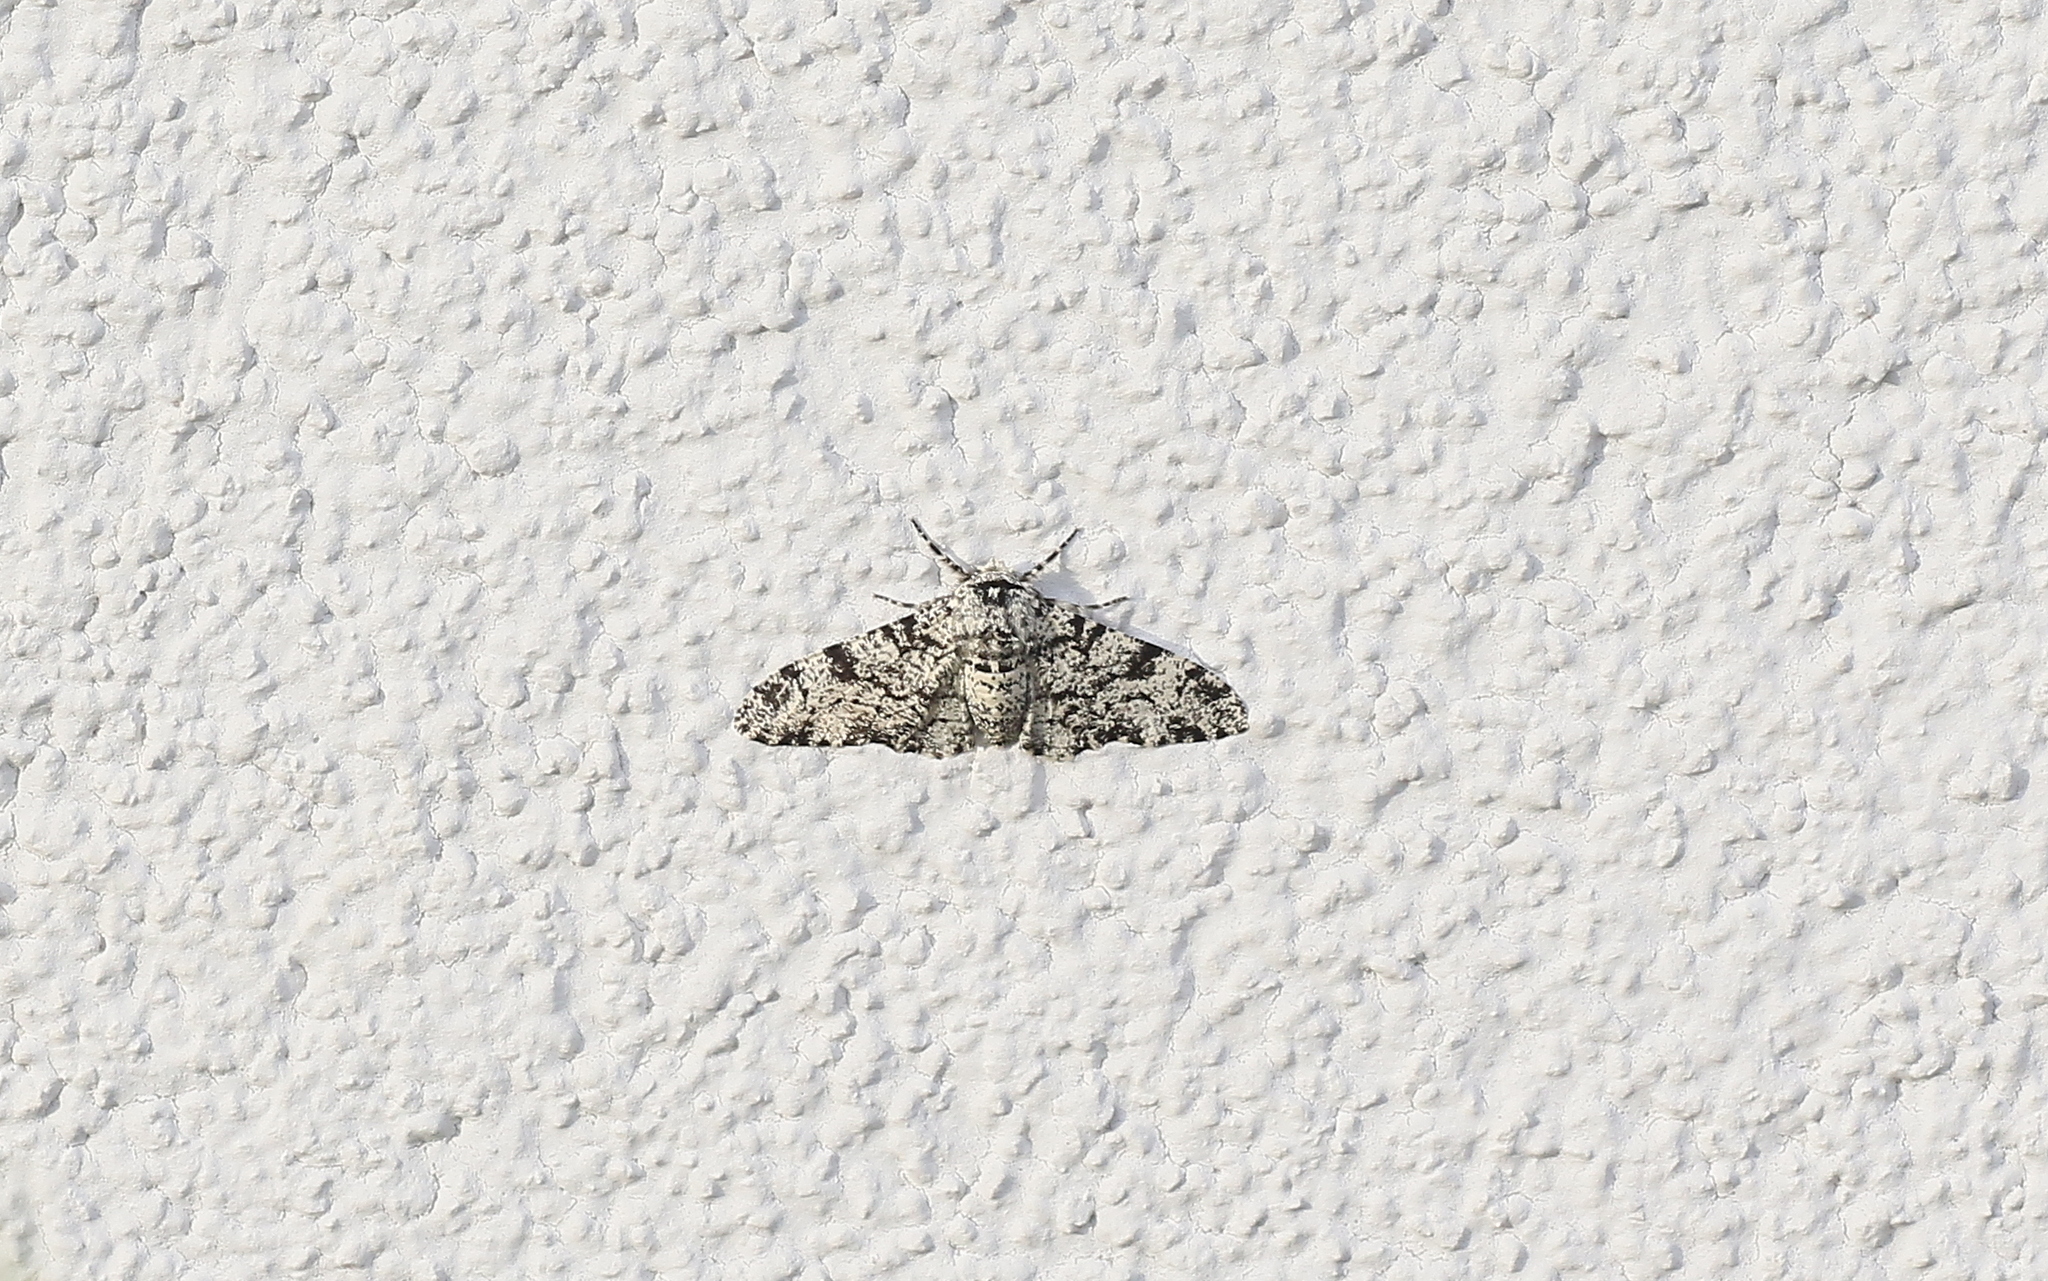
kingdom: Animalia
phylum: Arthropoda
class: Insecta
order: Lepidoptera
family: Geometridae
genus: Biston
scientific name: Biston betularia
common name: Peppered moth
